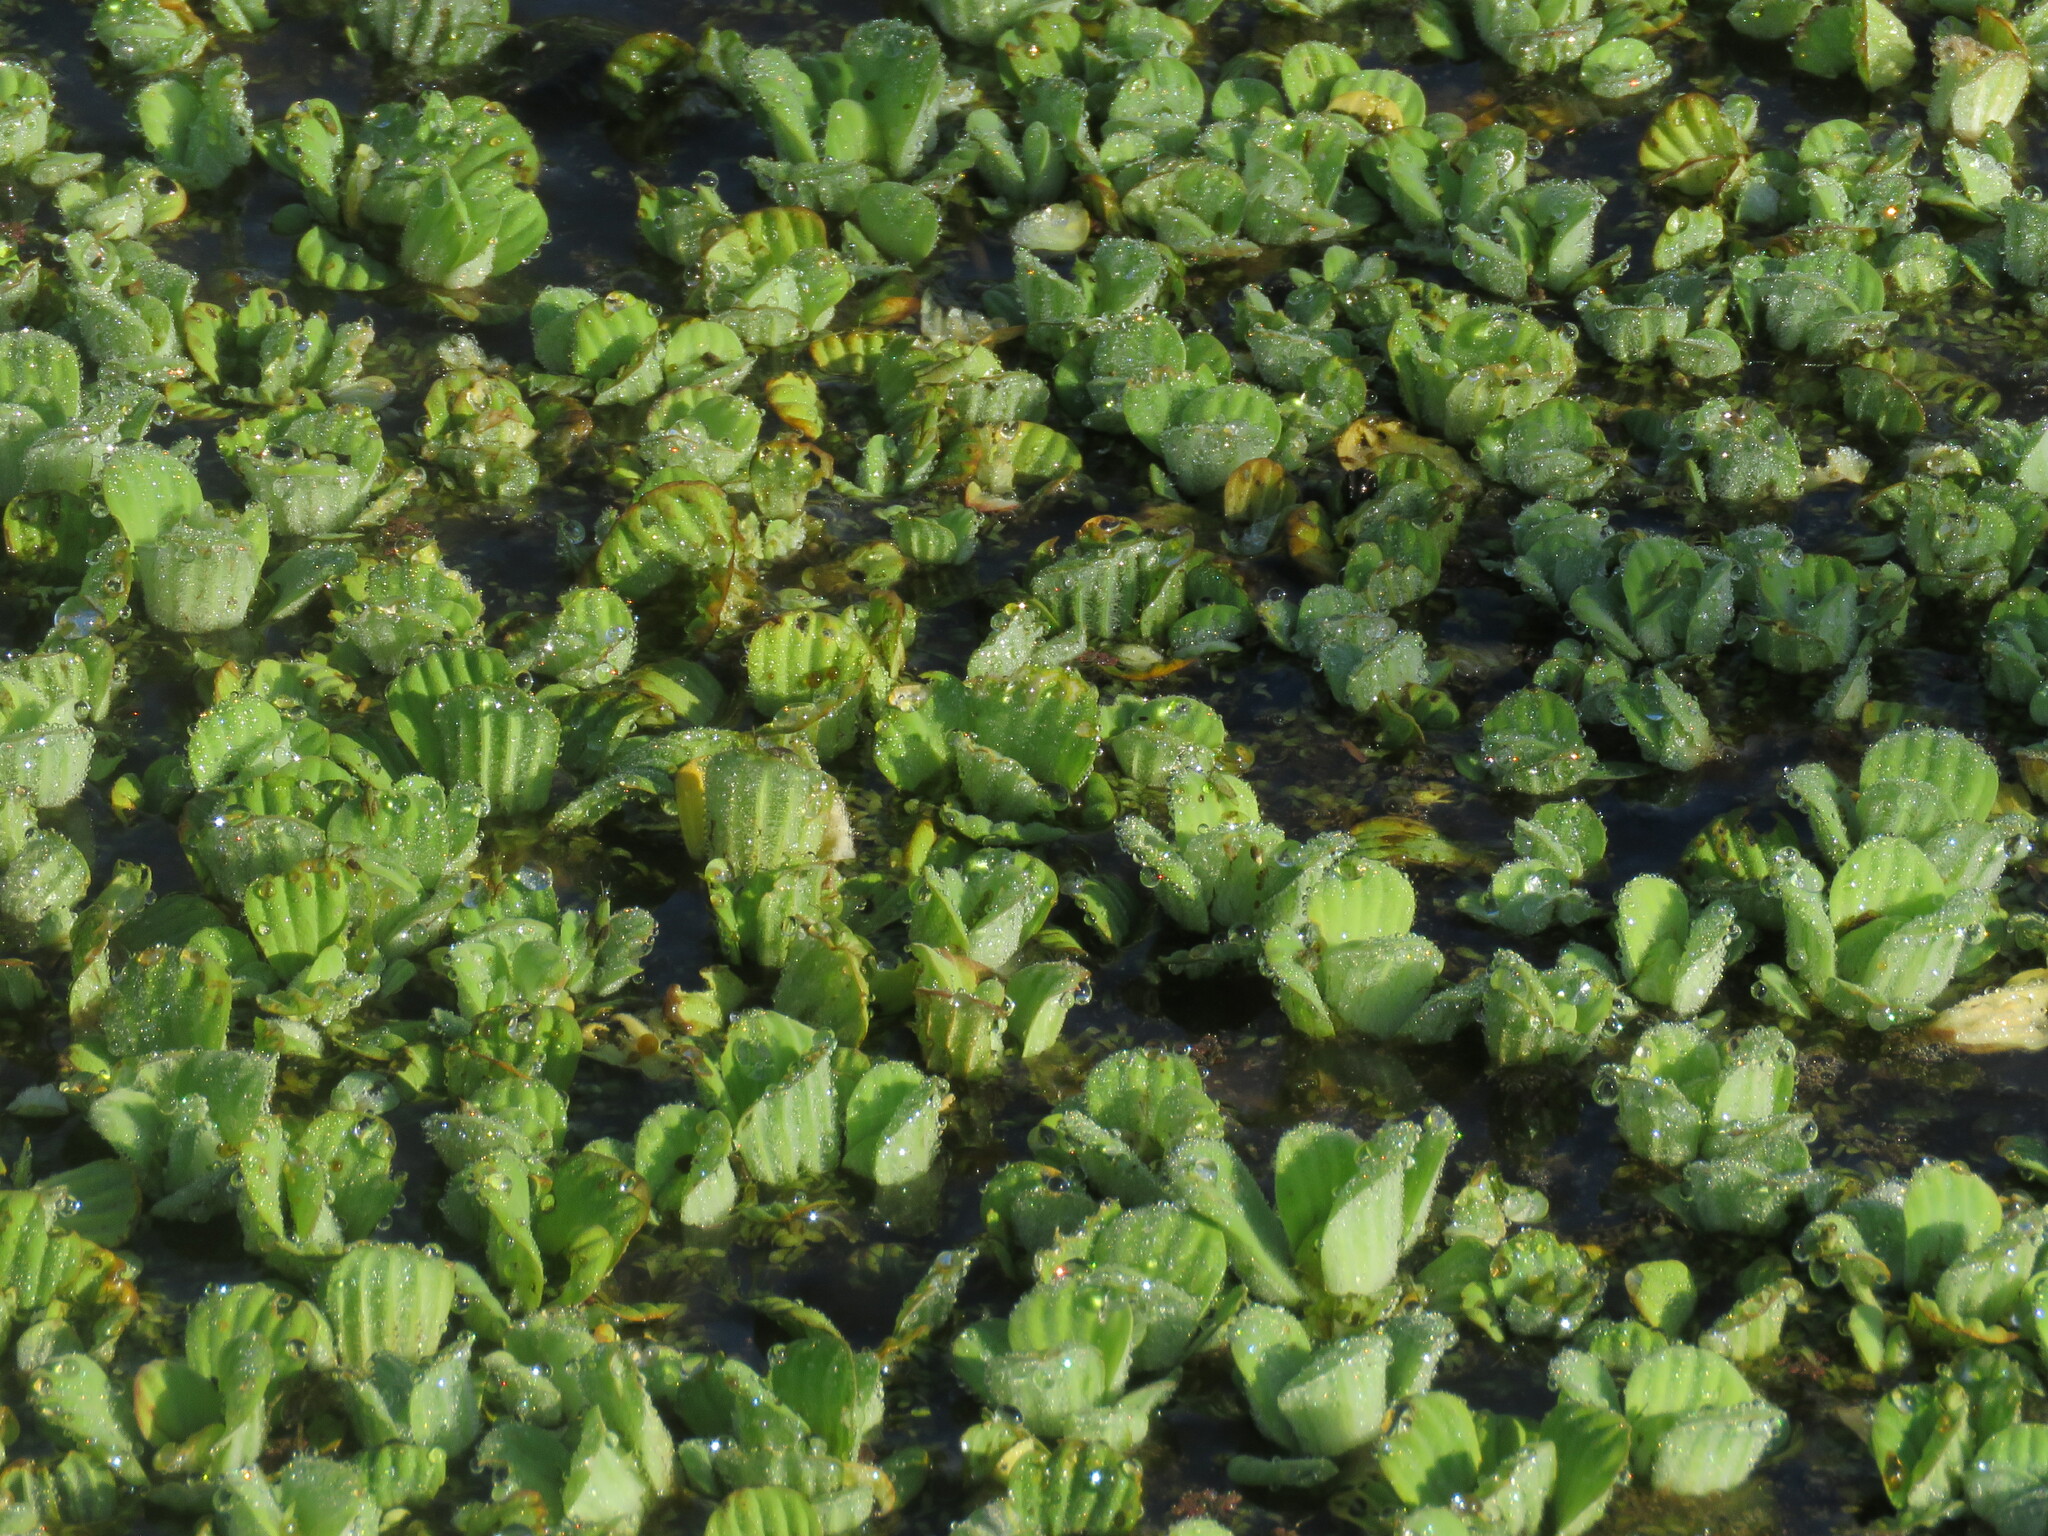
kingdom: Plantae
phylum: Tracheophyta
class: Liliopsida
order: Alismatales
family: Araceae
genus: Pistia
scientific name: Pistia stratiotes
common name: Water lettuce
